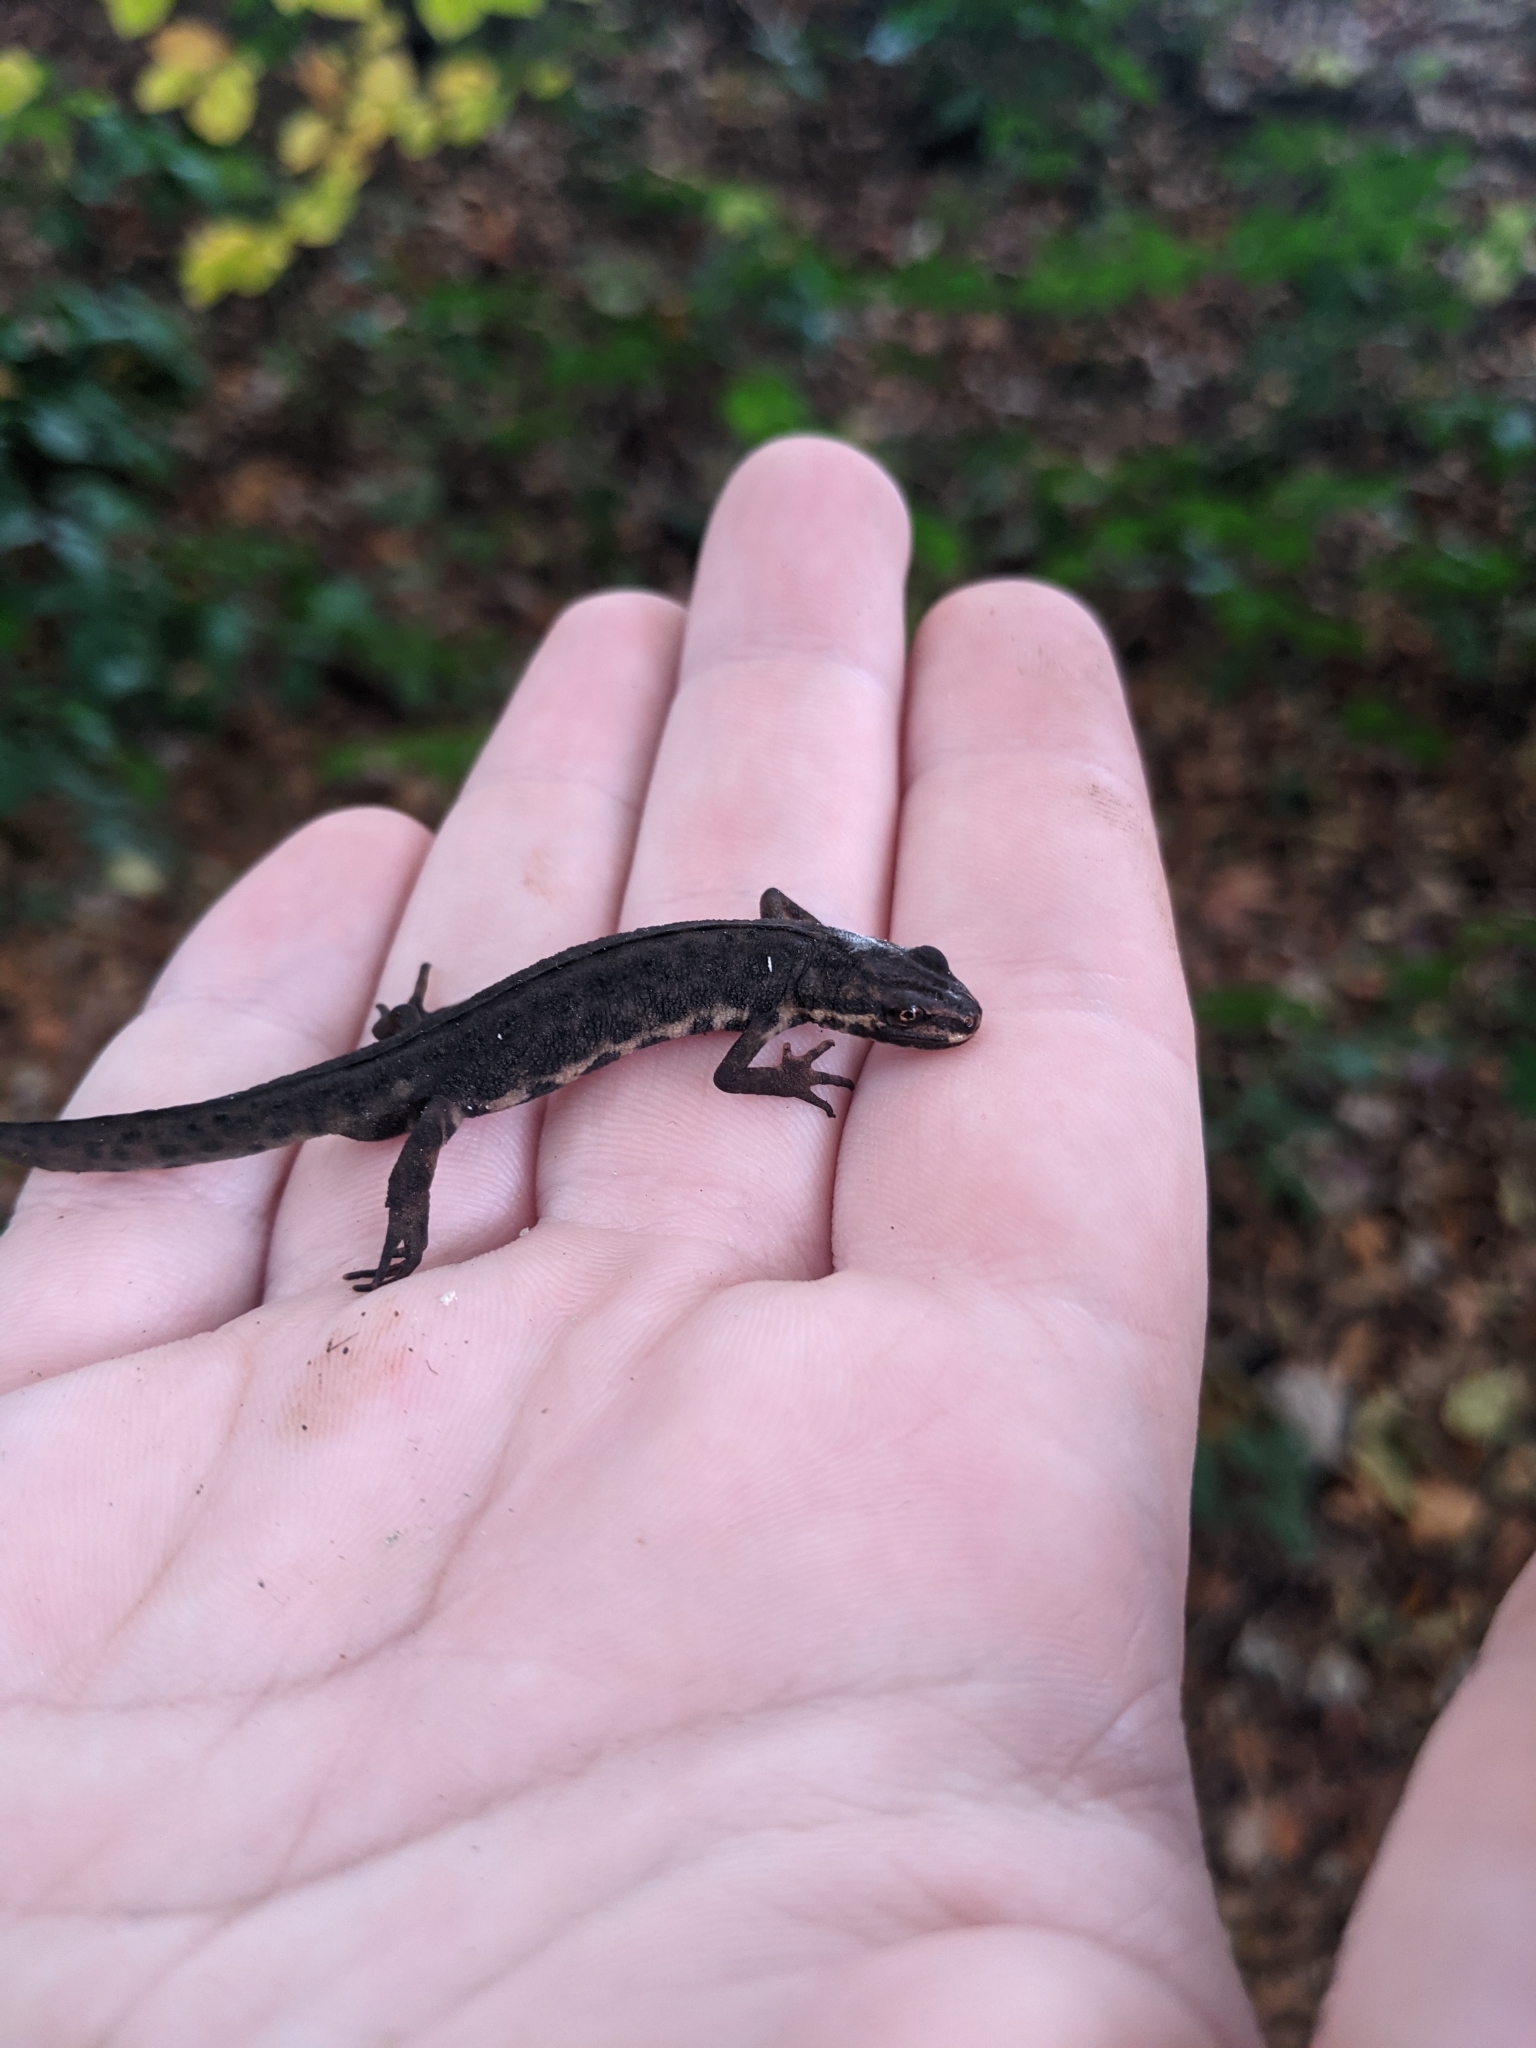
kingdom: Animalia
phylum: Chordata
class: Amphibia
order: Caudata
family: Salamandridae
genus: Lissotriton
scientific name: Lissotriton vulgaris
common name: Smooth newt
